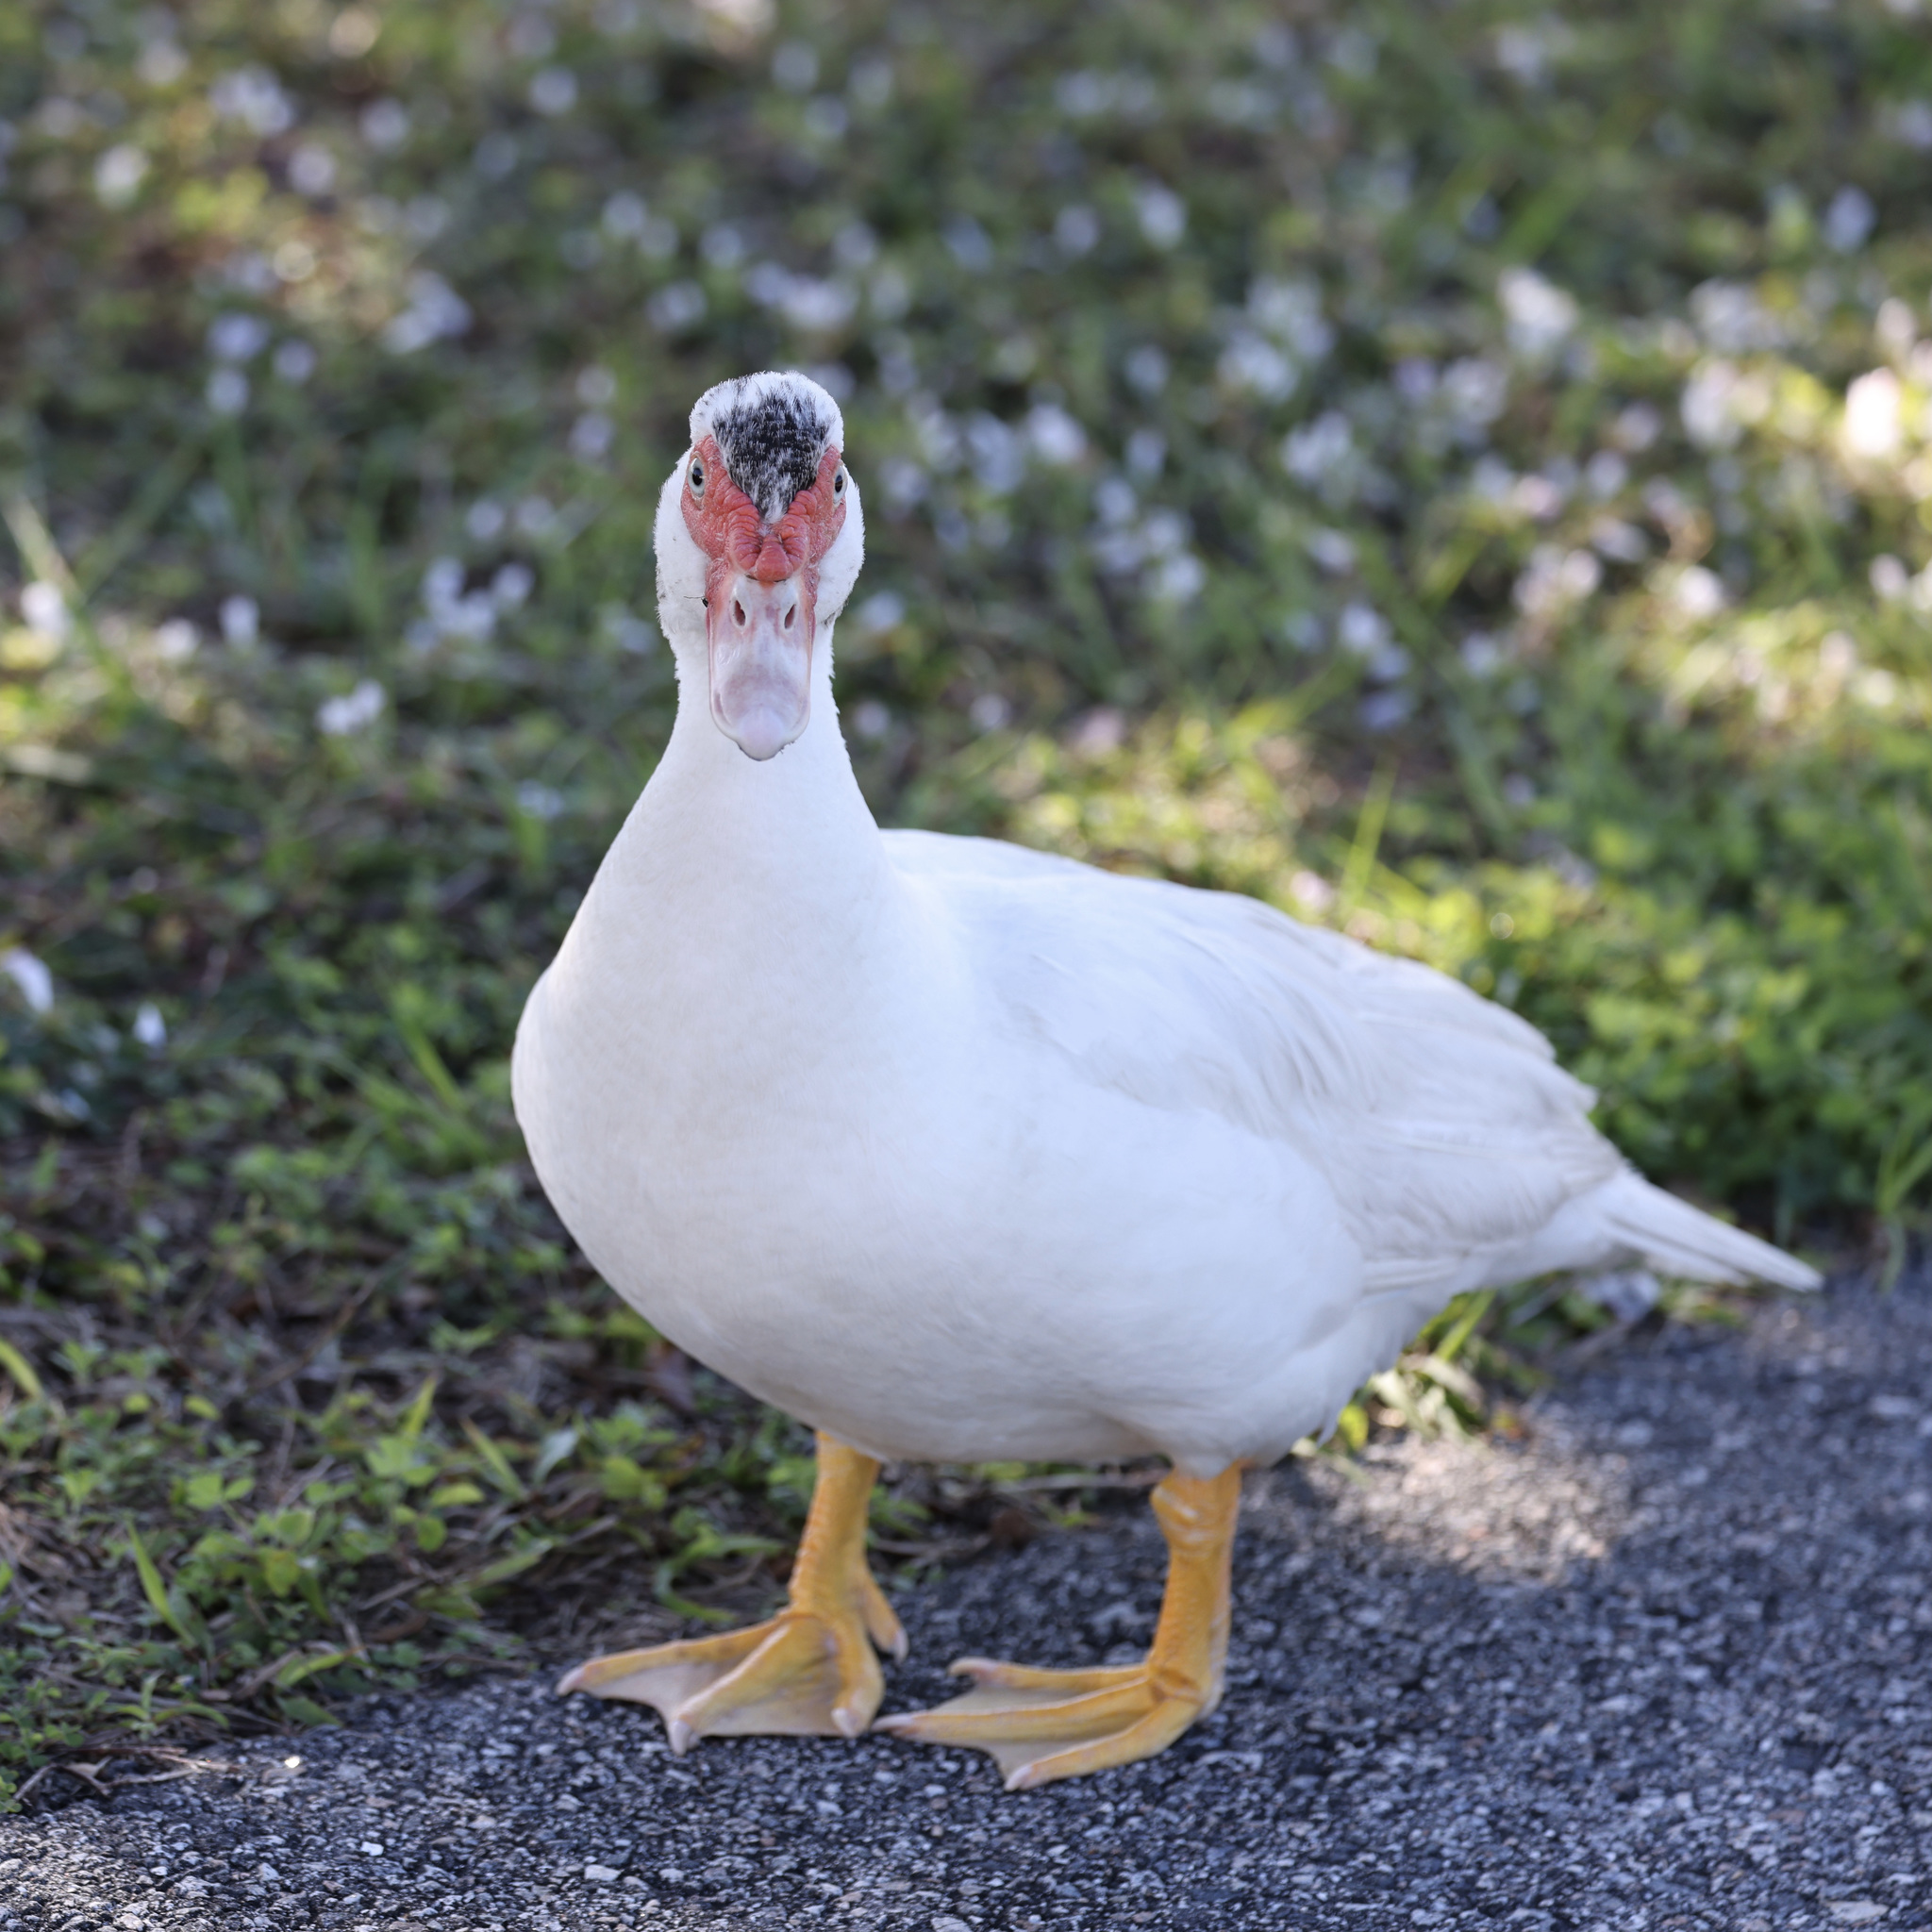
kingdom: Animalia
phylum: Chordata
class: Aves
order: Anseriformes
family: Anatidae
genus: Cairina
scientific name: Cairina moschata
